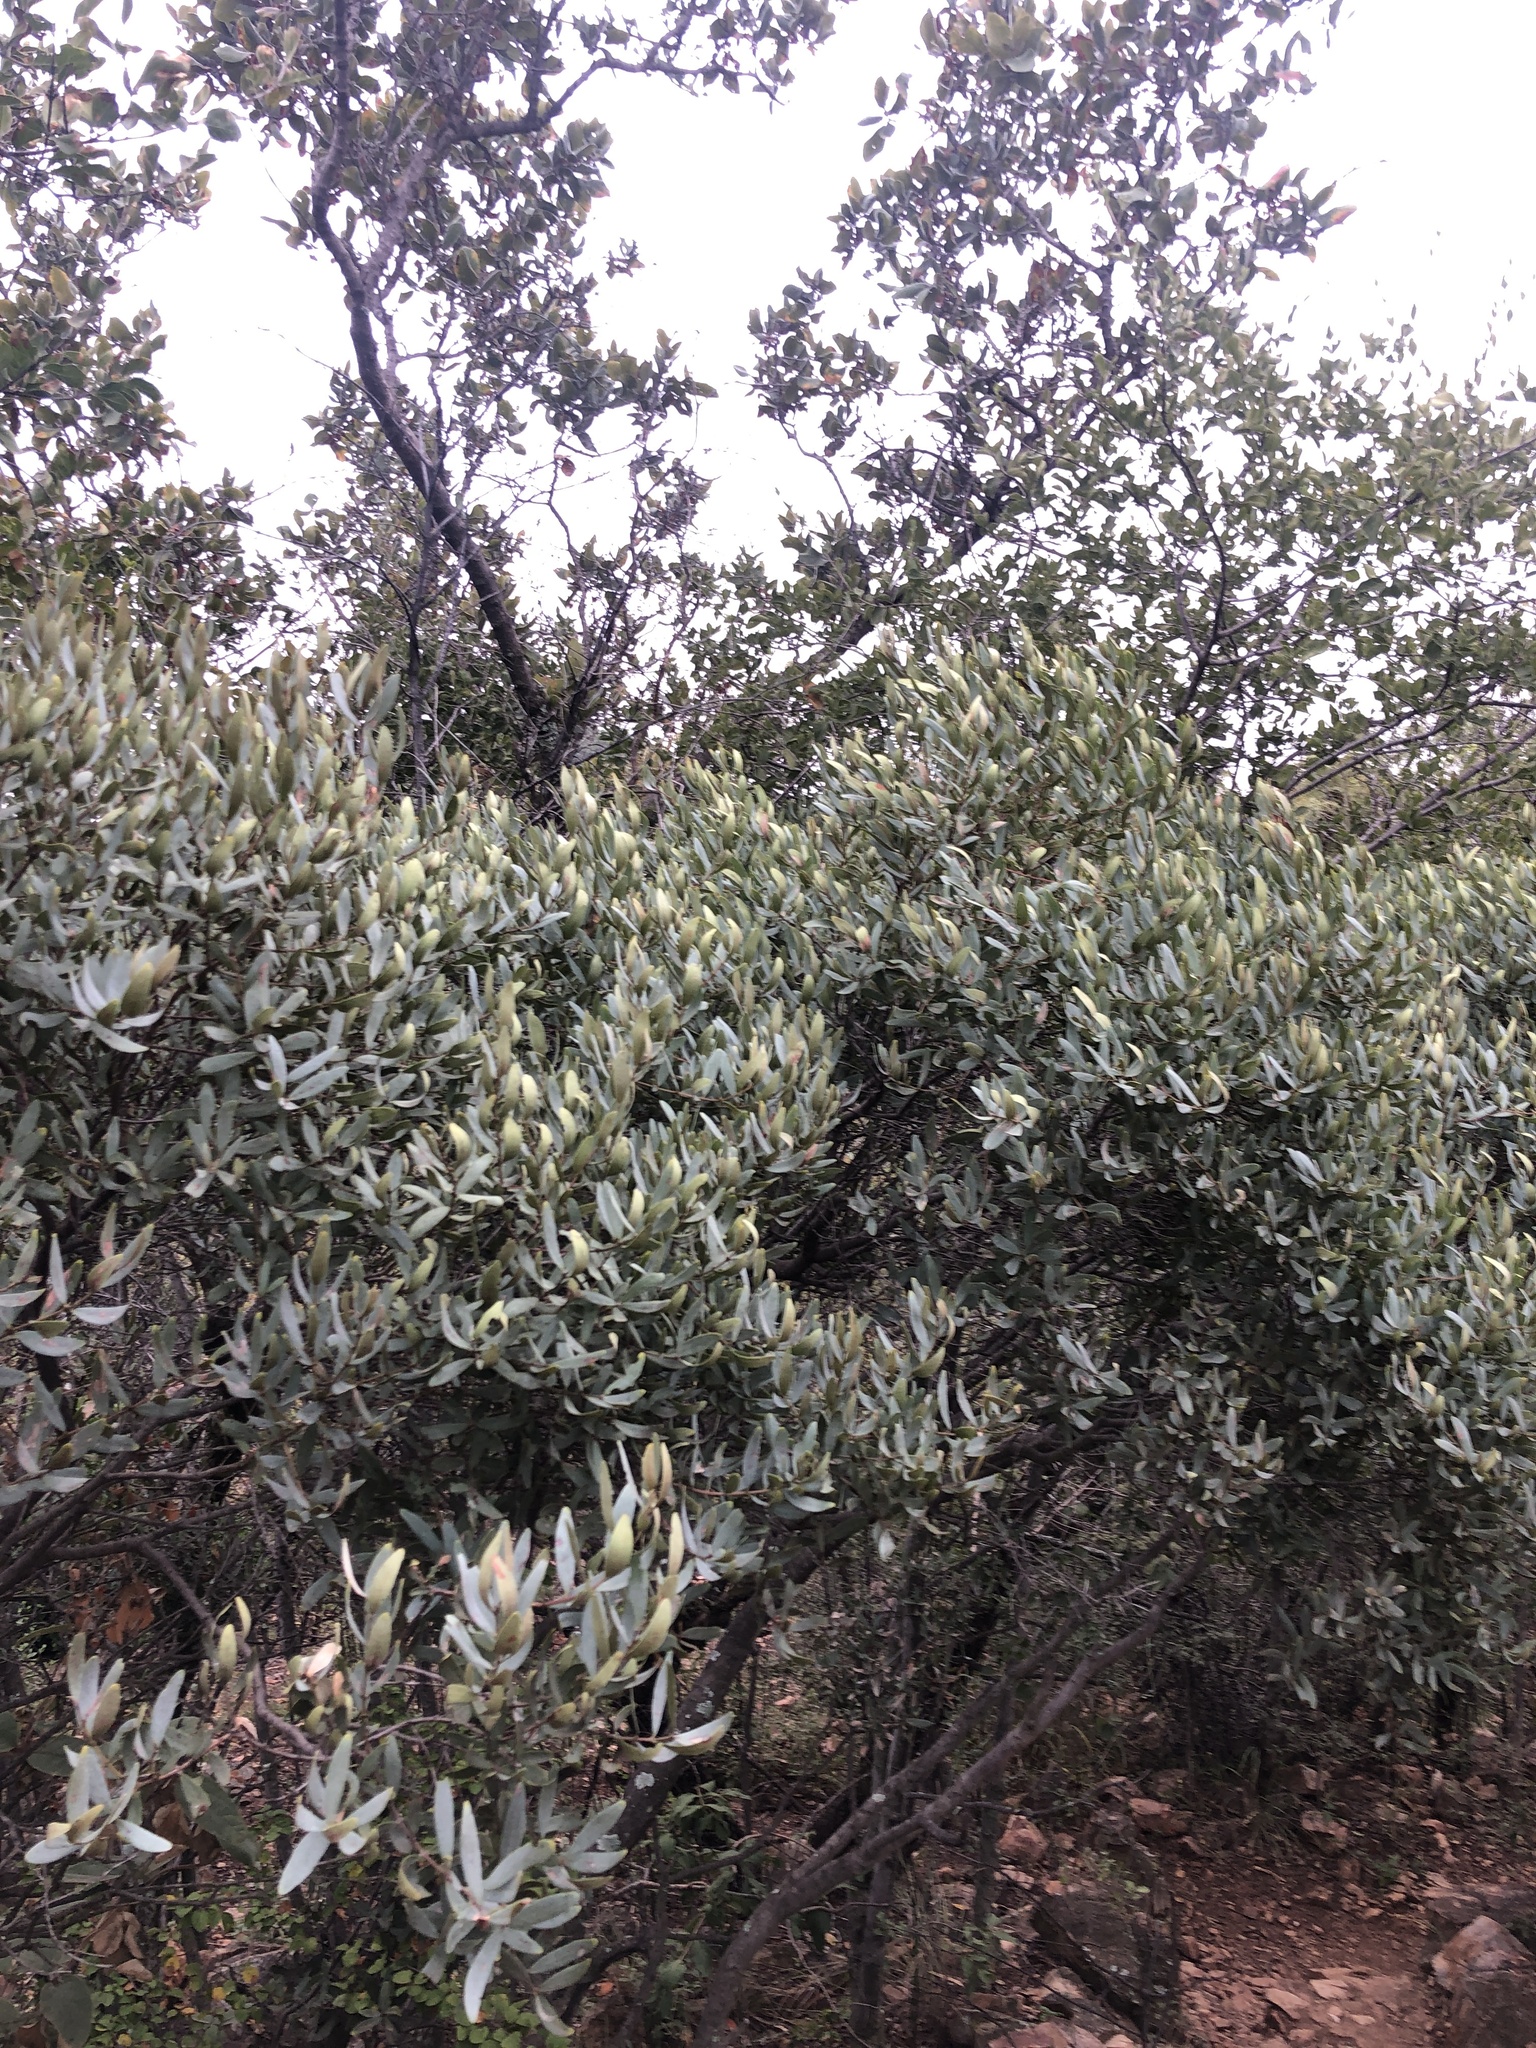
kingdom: Plantae
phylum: Tracheophyta
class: Magnoliopsida
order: Ericales
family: Ebenaceae
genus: Euclea
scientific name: Euclea crispa
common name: Blue guarri
